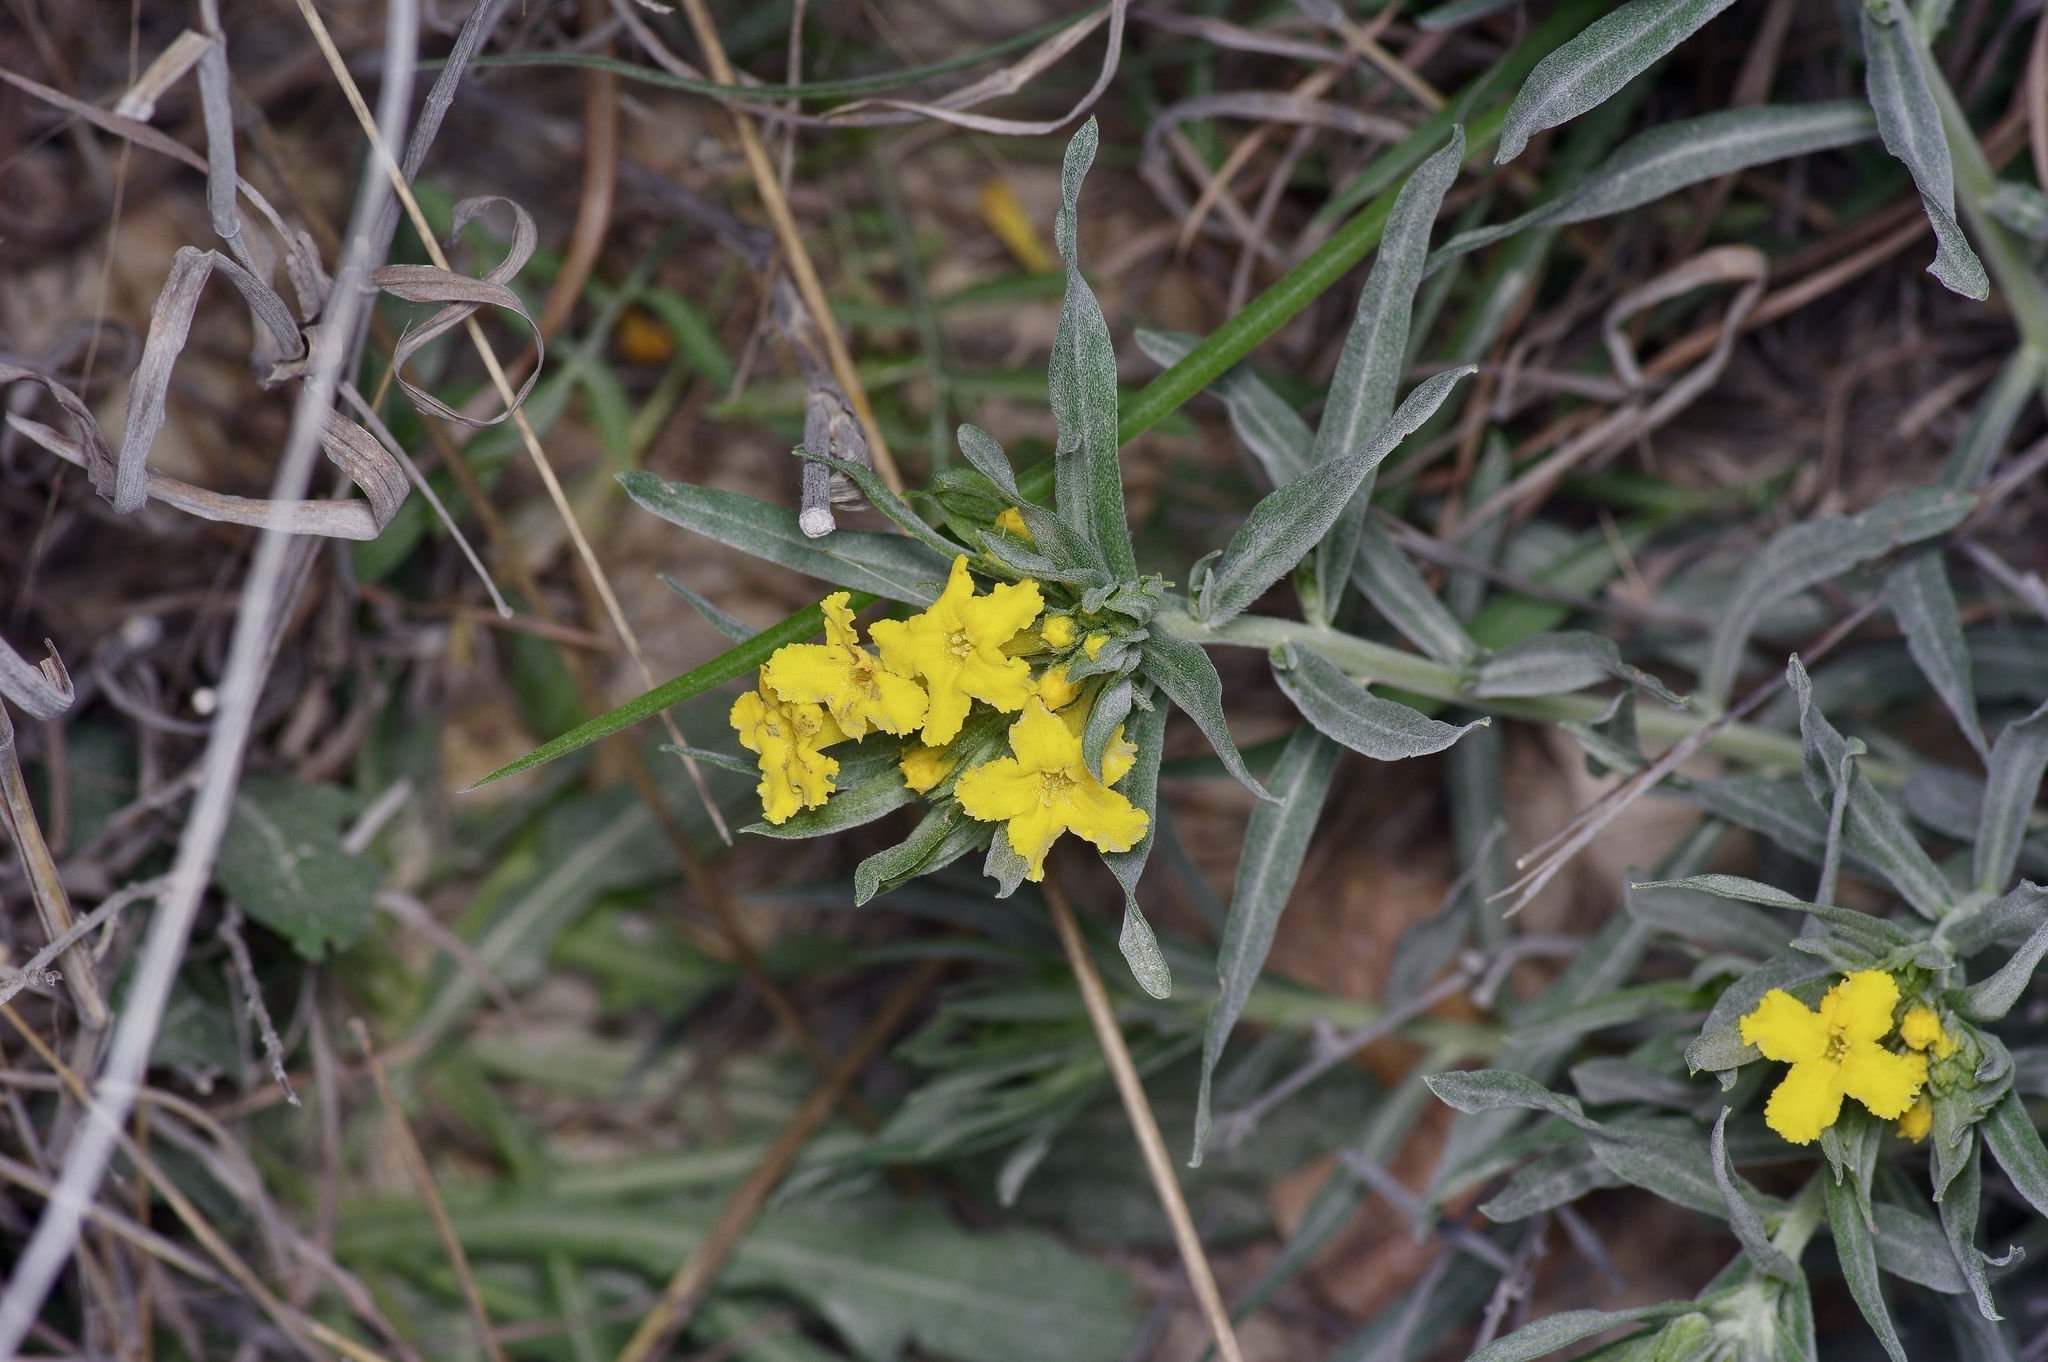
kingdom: Plantae
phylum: Tracheophyta
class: Magnoliopsida
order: Boraginales
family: Boraginaceae
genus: Lithospermum
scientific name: Lithospermum incisum
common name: Fringed gromwell
